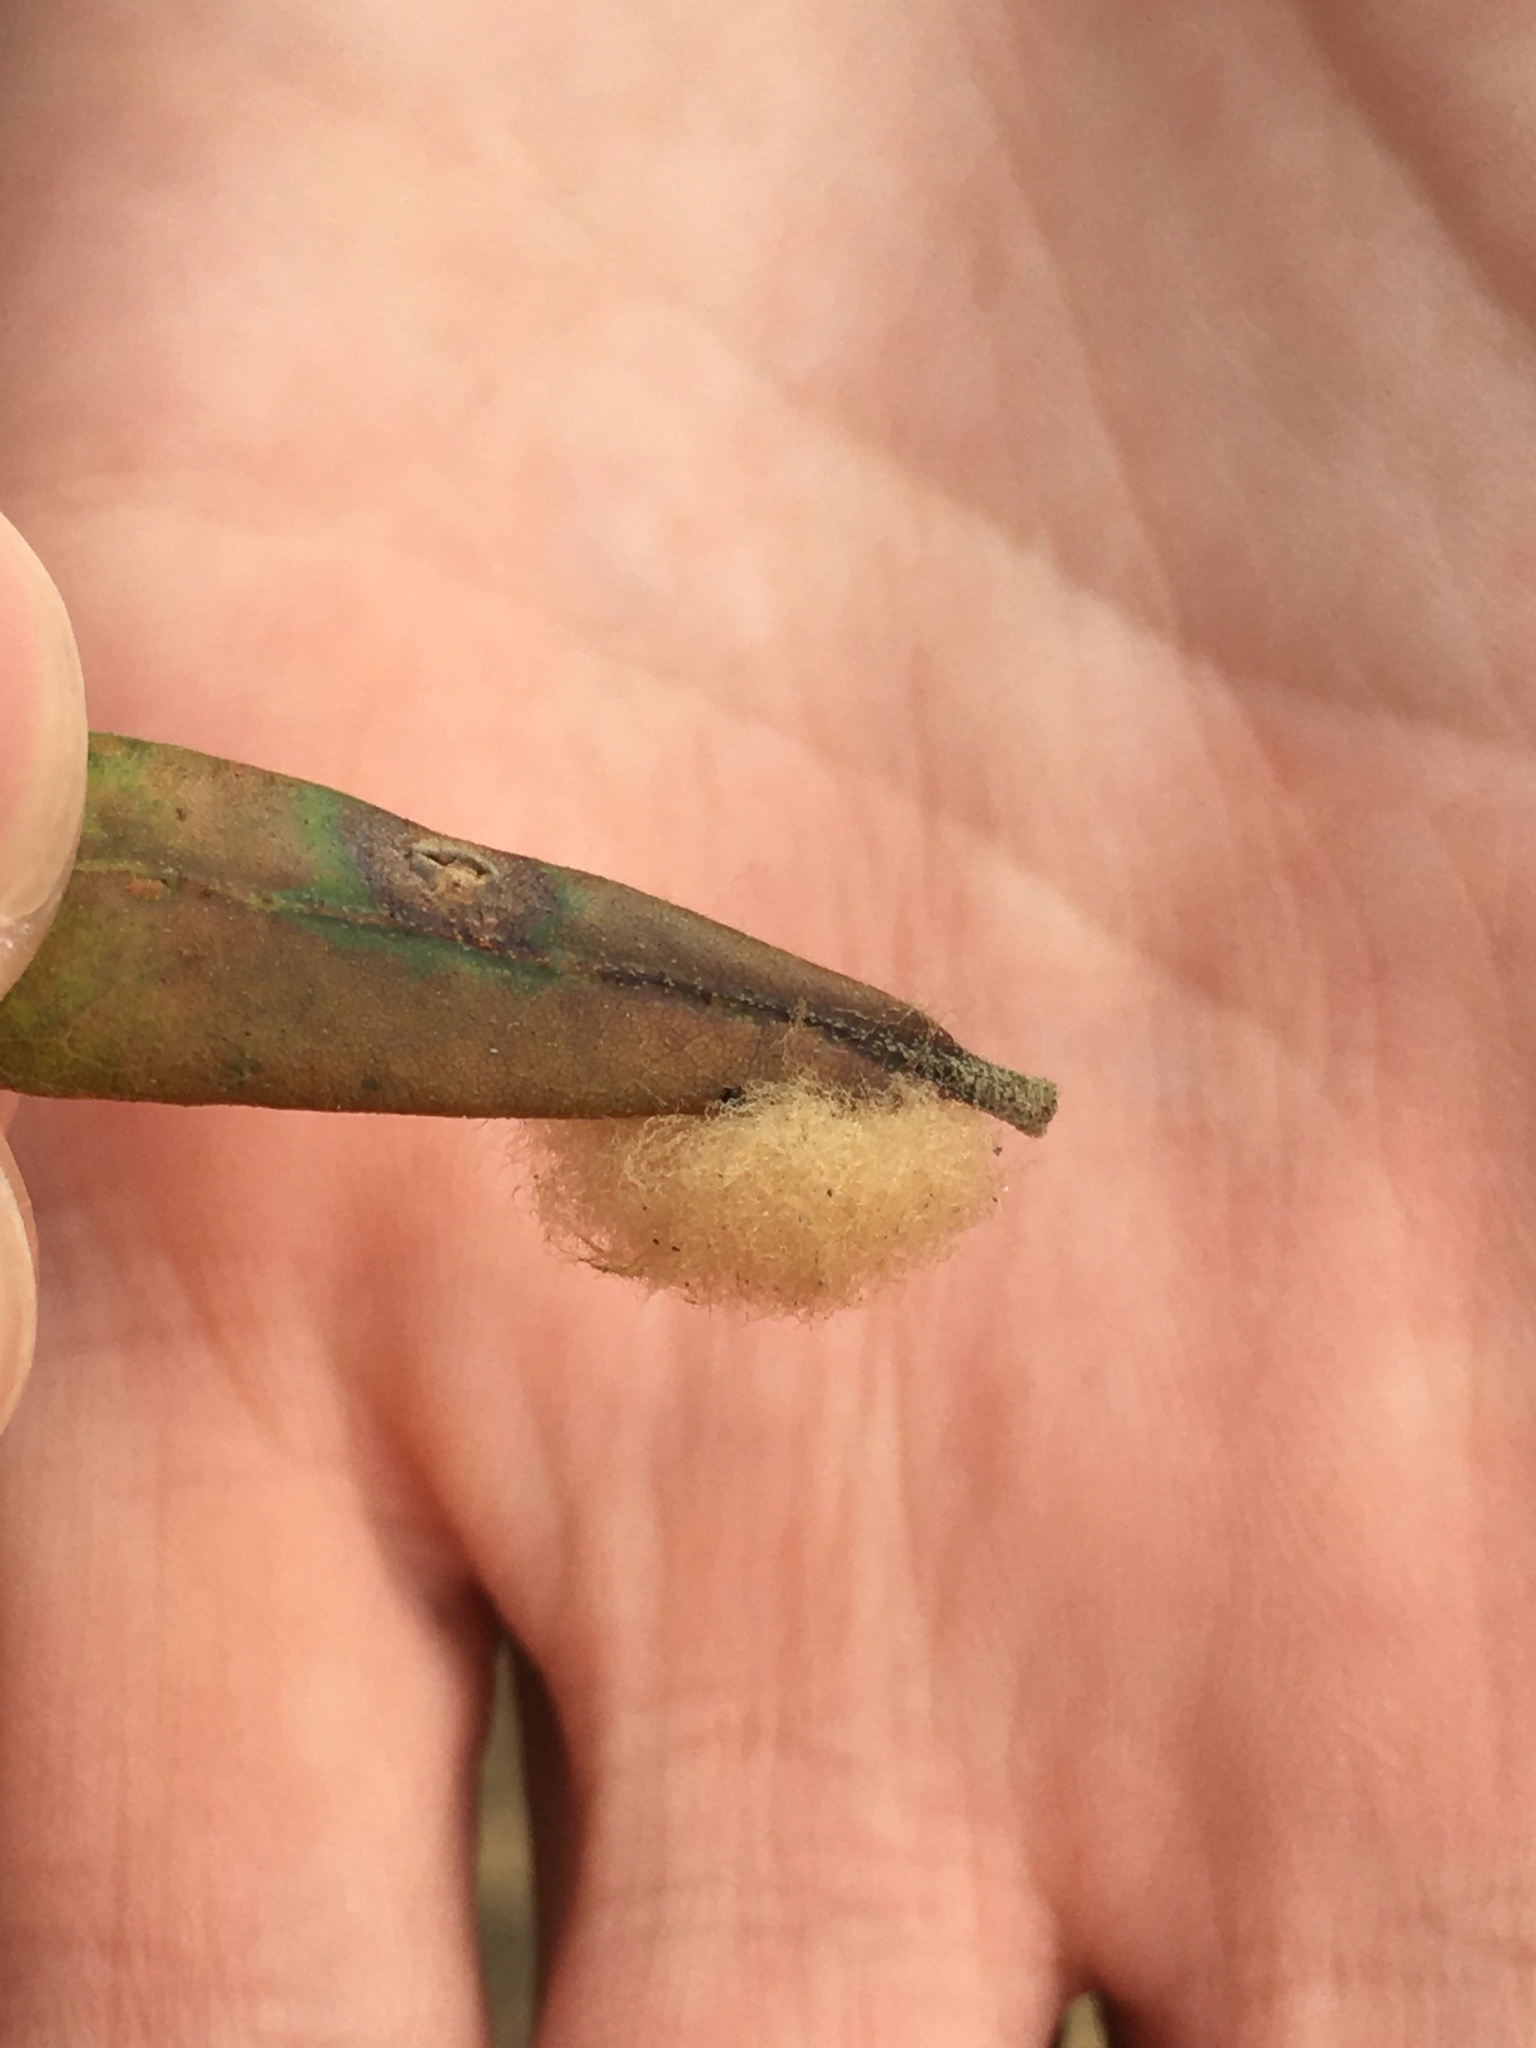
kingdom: Animalia
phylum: Arthropoda
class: Insecta
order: Hymenoptera
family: Cynipidae
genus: Andricus
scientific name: Andricus Druon quercuslanigerum
